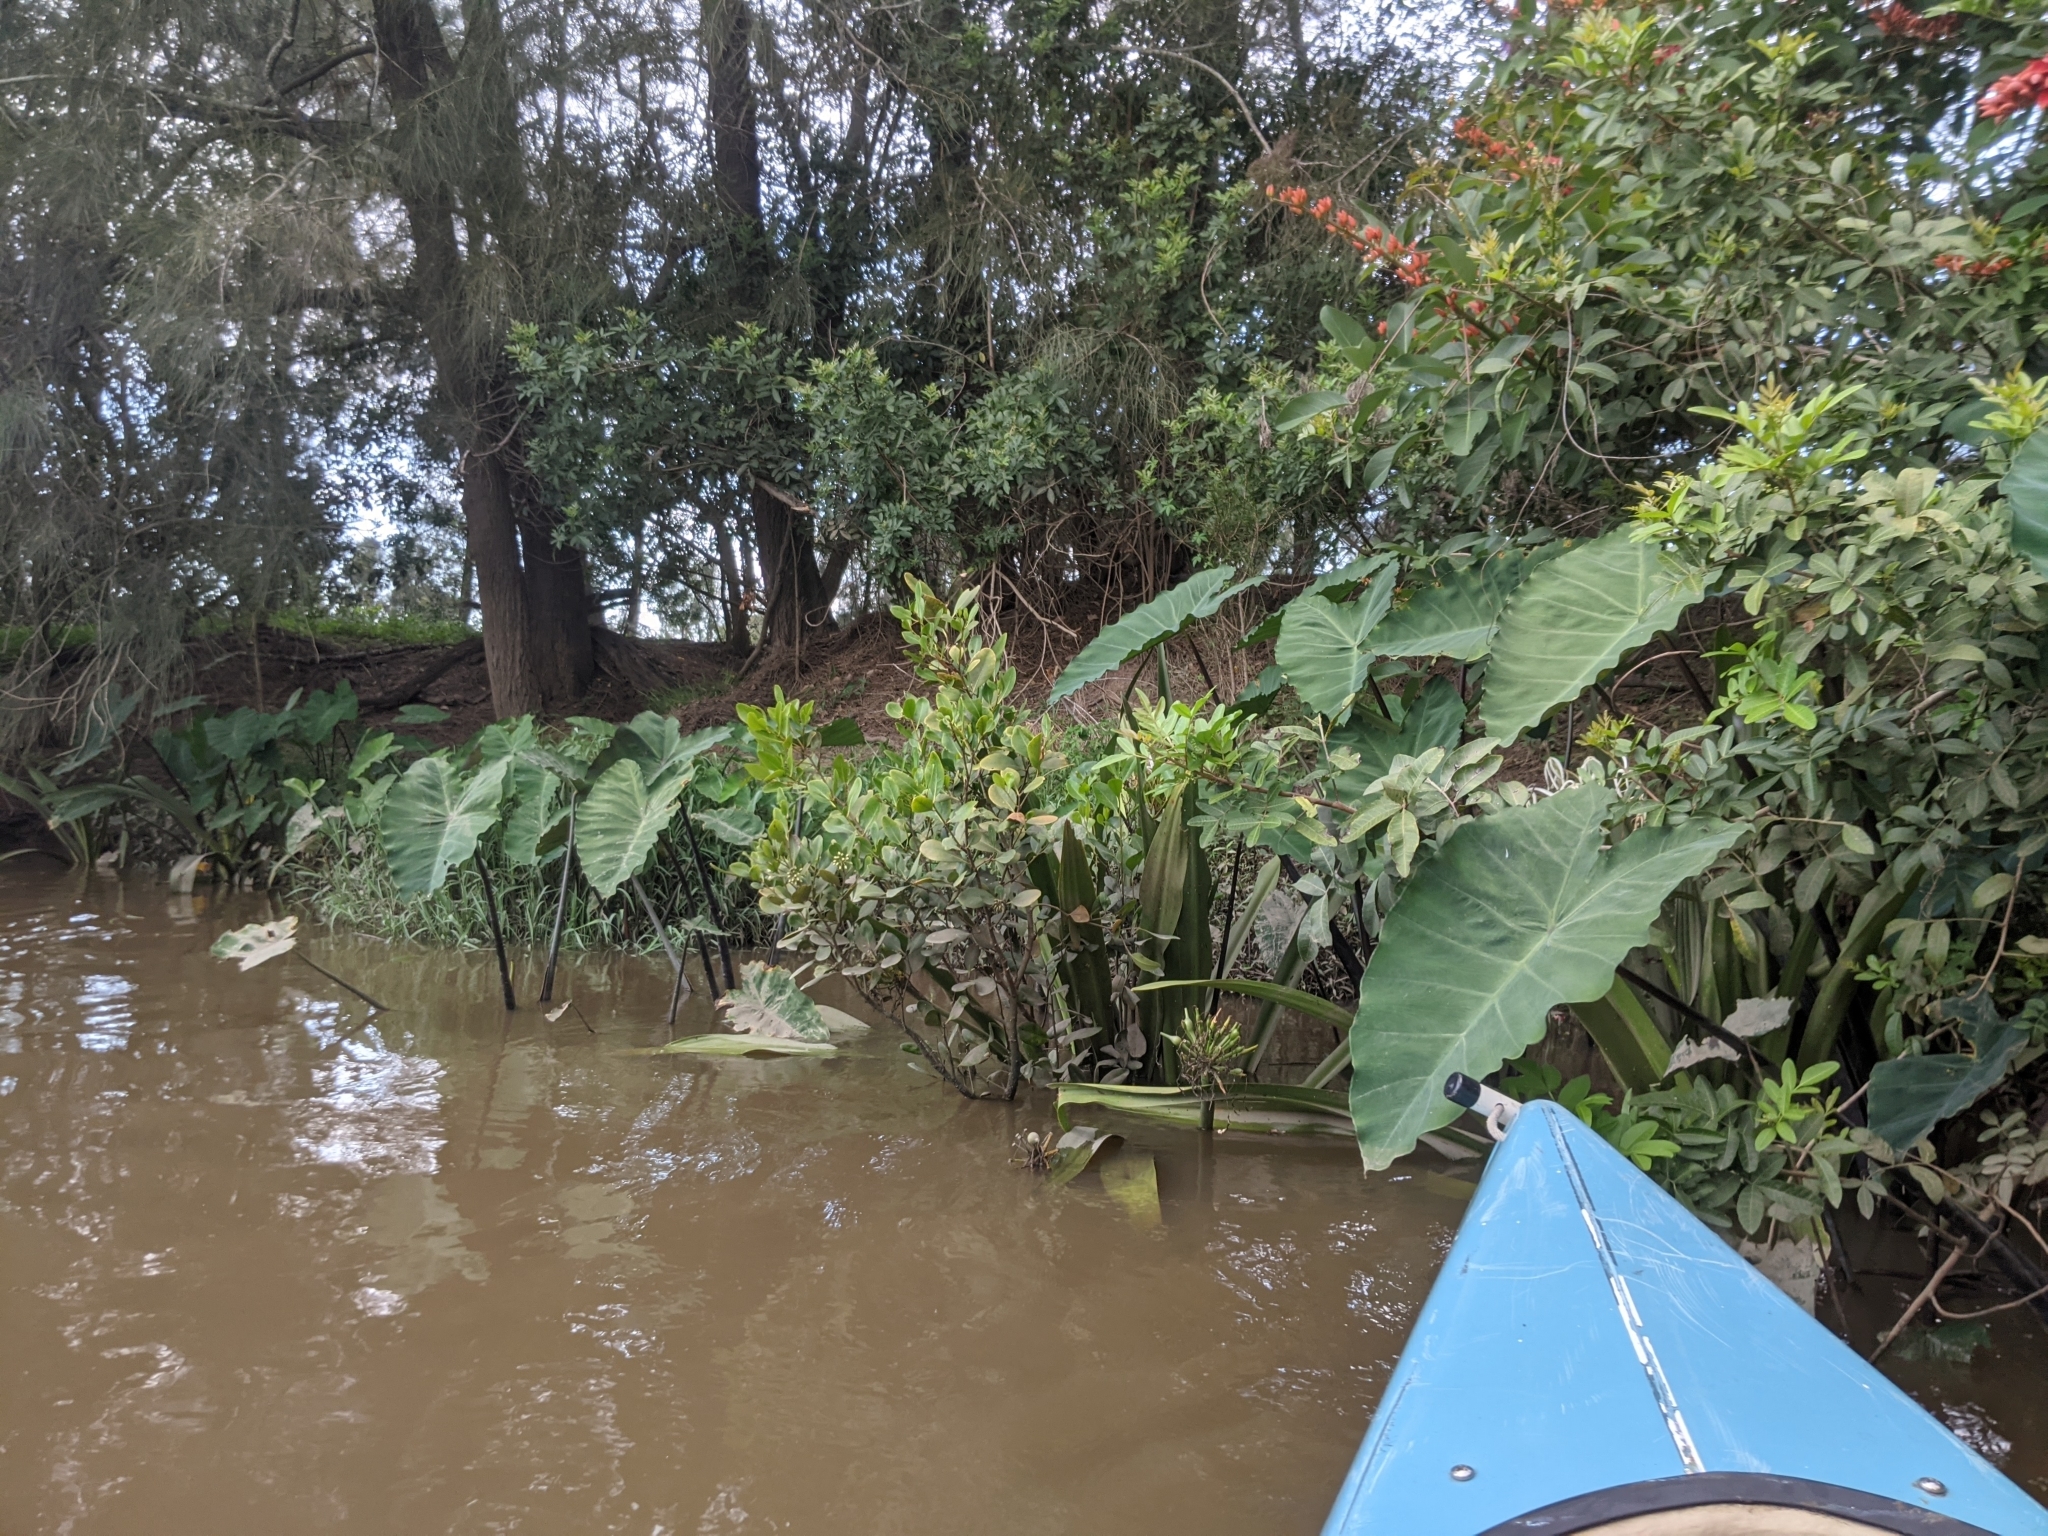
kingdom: Plantae
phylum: Tracheophyta
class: Liliopsida
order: Alismatales
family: Araceae
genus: Colocasia
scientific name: Colocasia esculenta
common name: Taro
